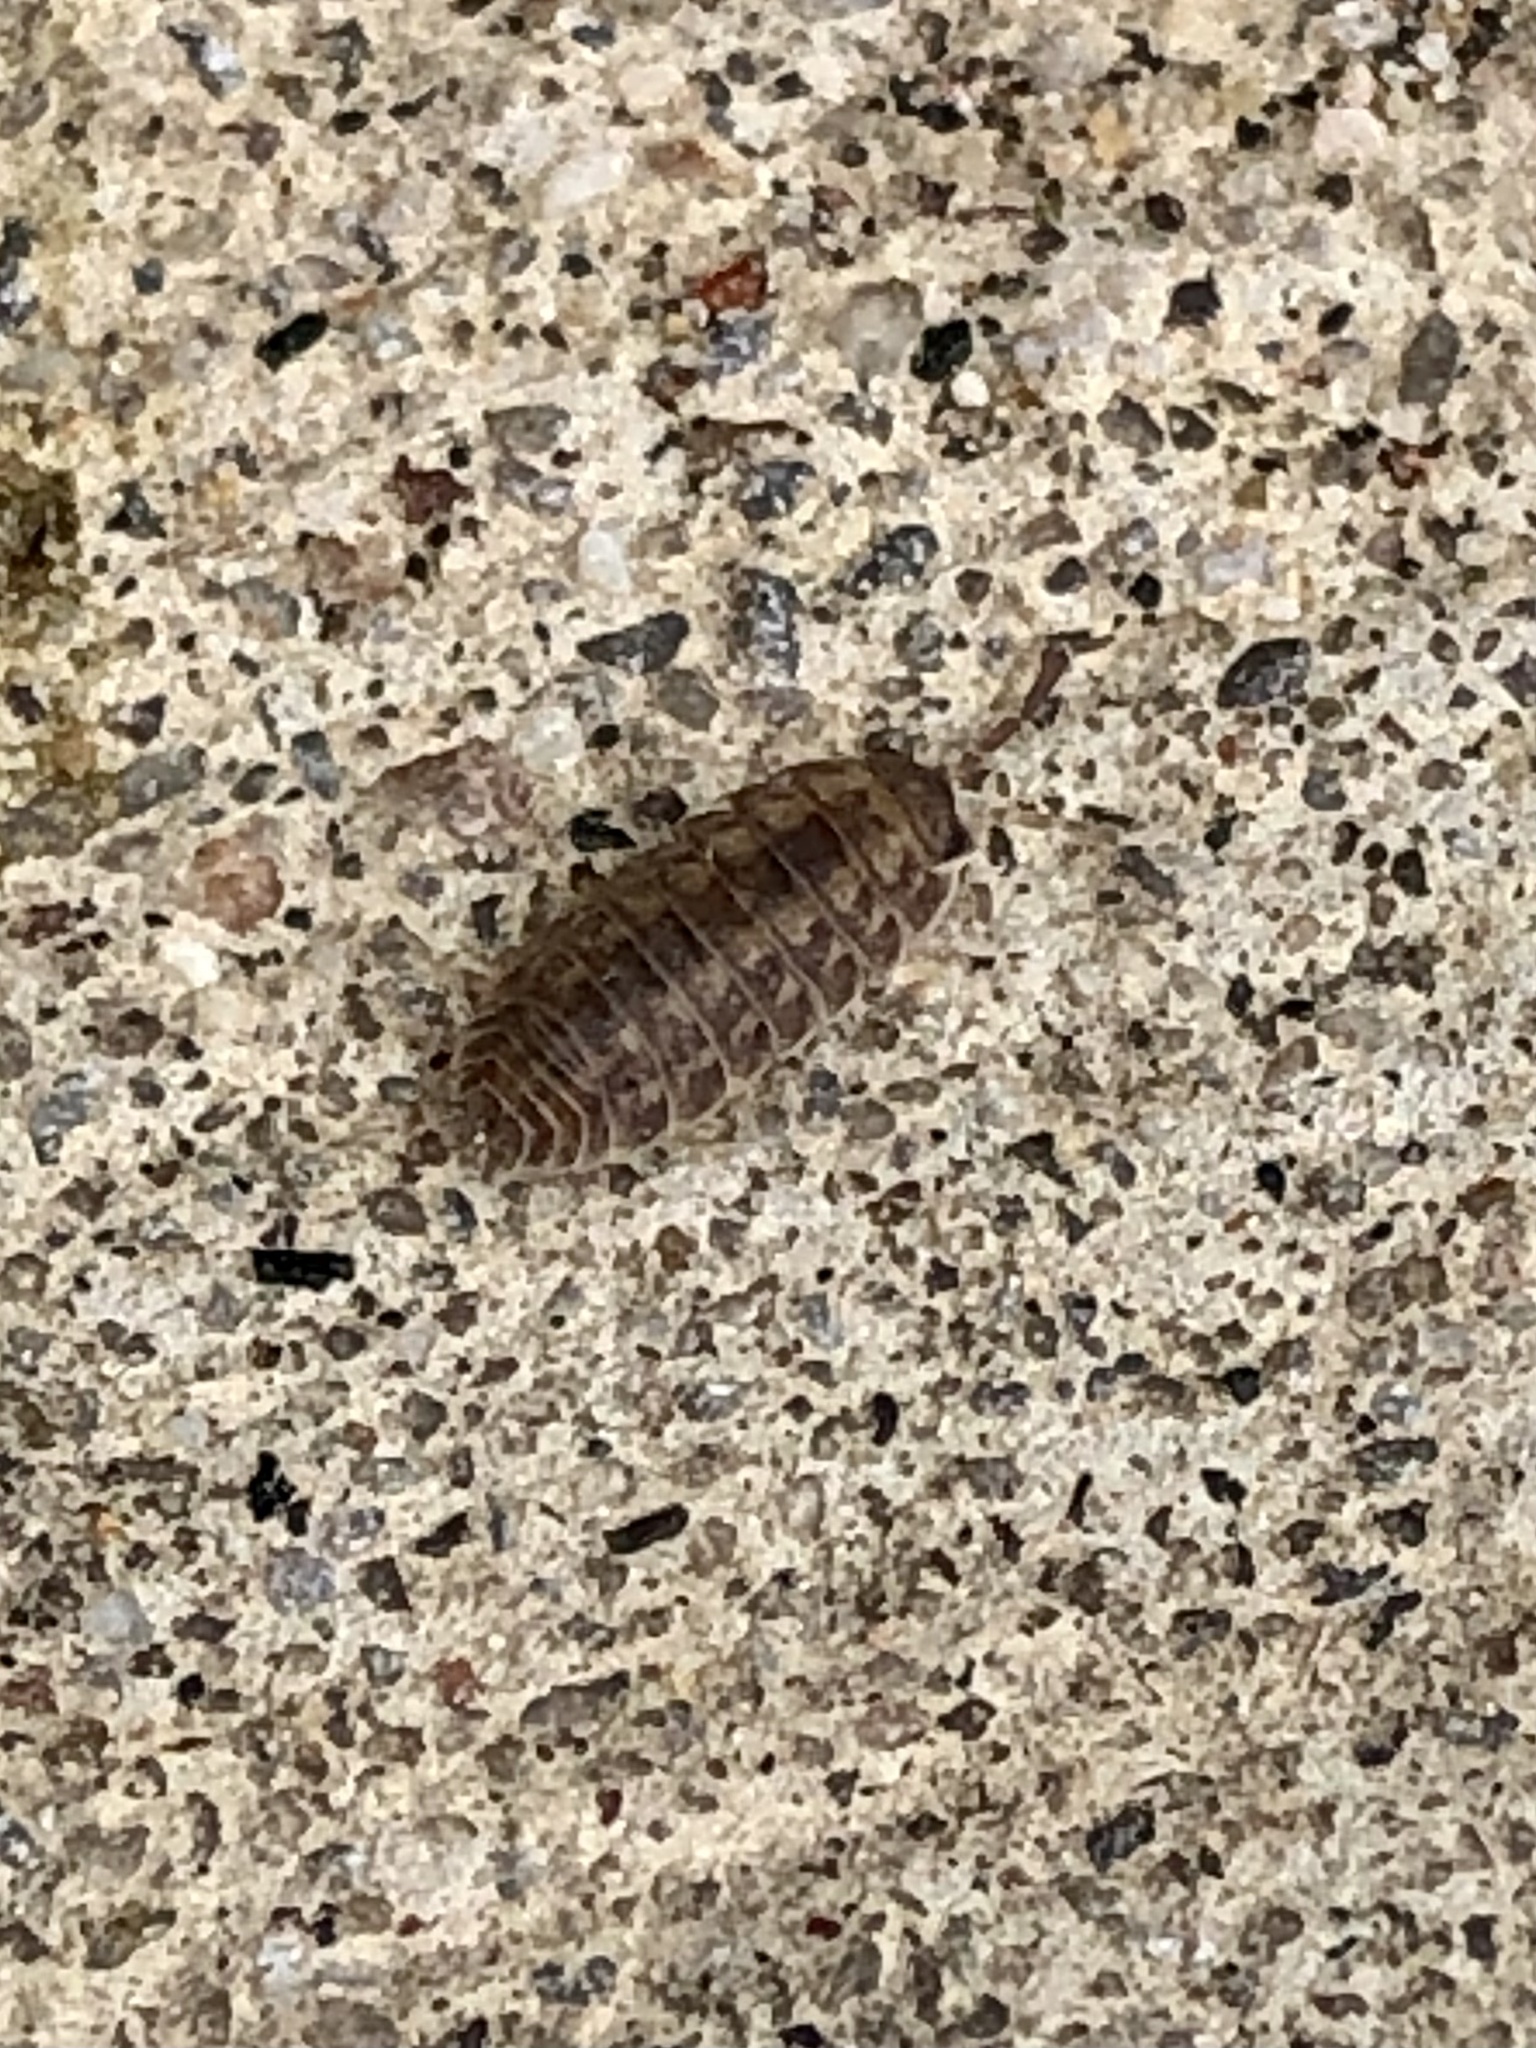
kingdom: Animalia
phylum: Arthropoda
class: Malacostraca
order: Isopoda
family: Trachelipodidae
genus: Trachelipus
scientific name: Trachelipus rathkii
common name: Isopod
